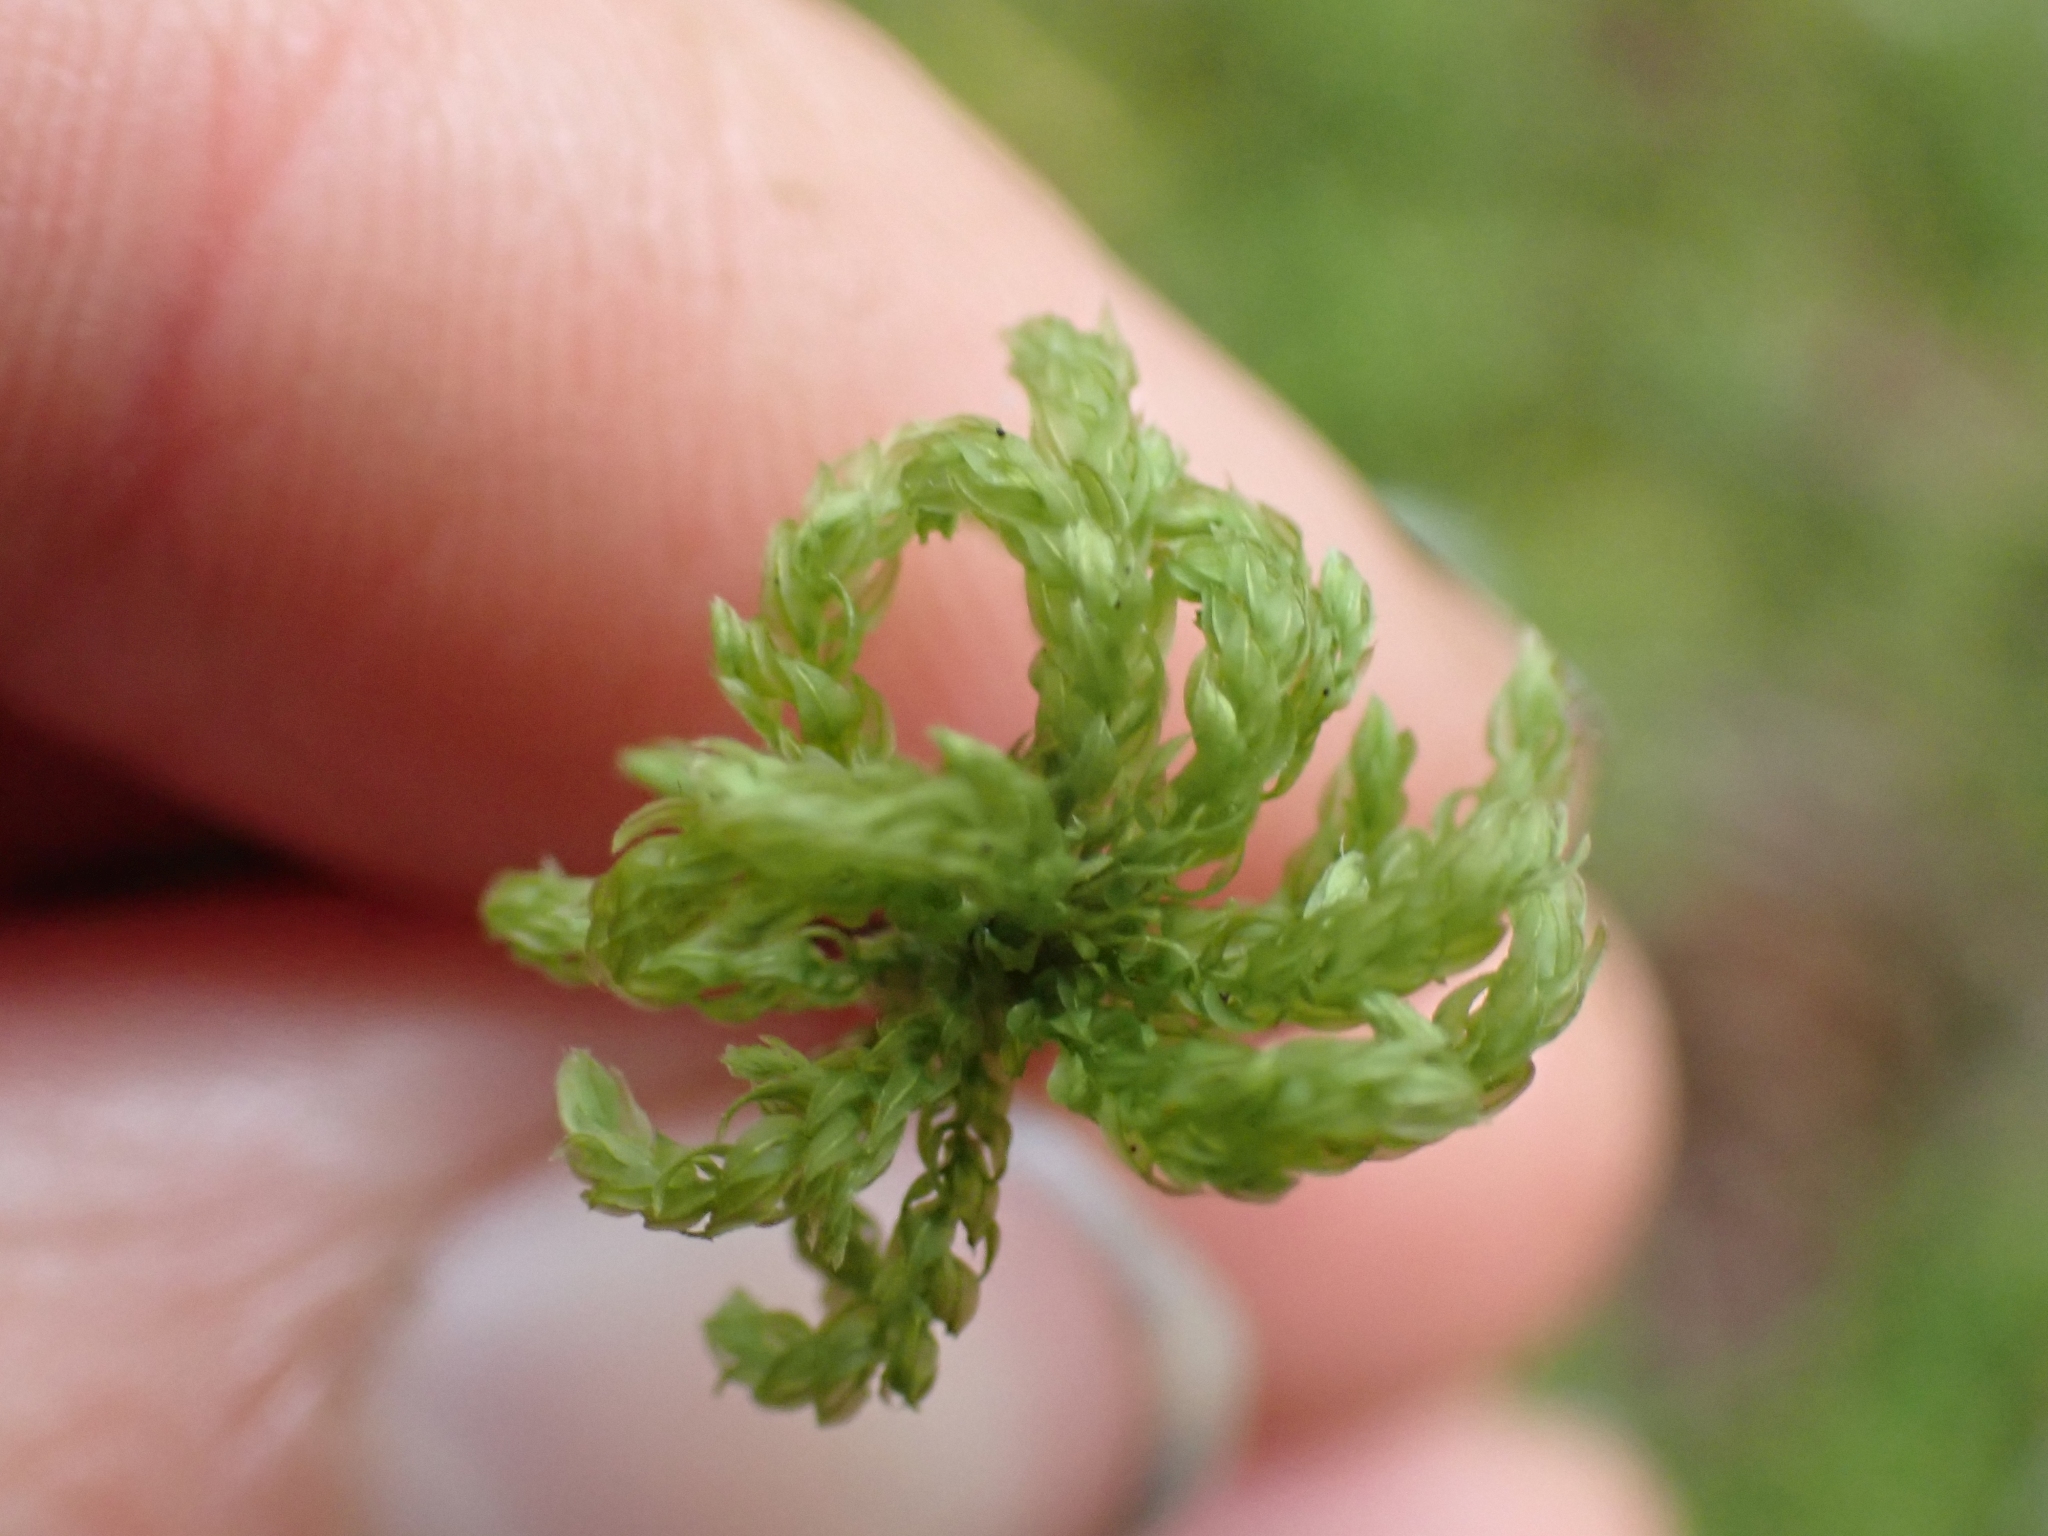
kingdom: Plantae
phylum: Bryophyta
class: Bryopsida
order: Bryales
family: Mniaceae
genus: Leucolepis
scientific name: Leucolepis acanthoneura
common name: Leucolepis umbrella moss
